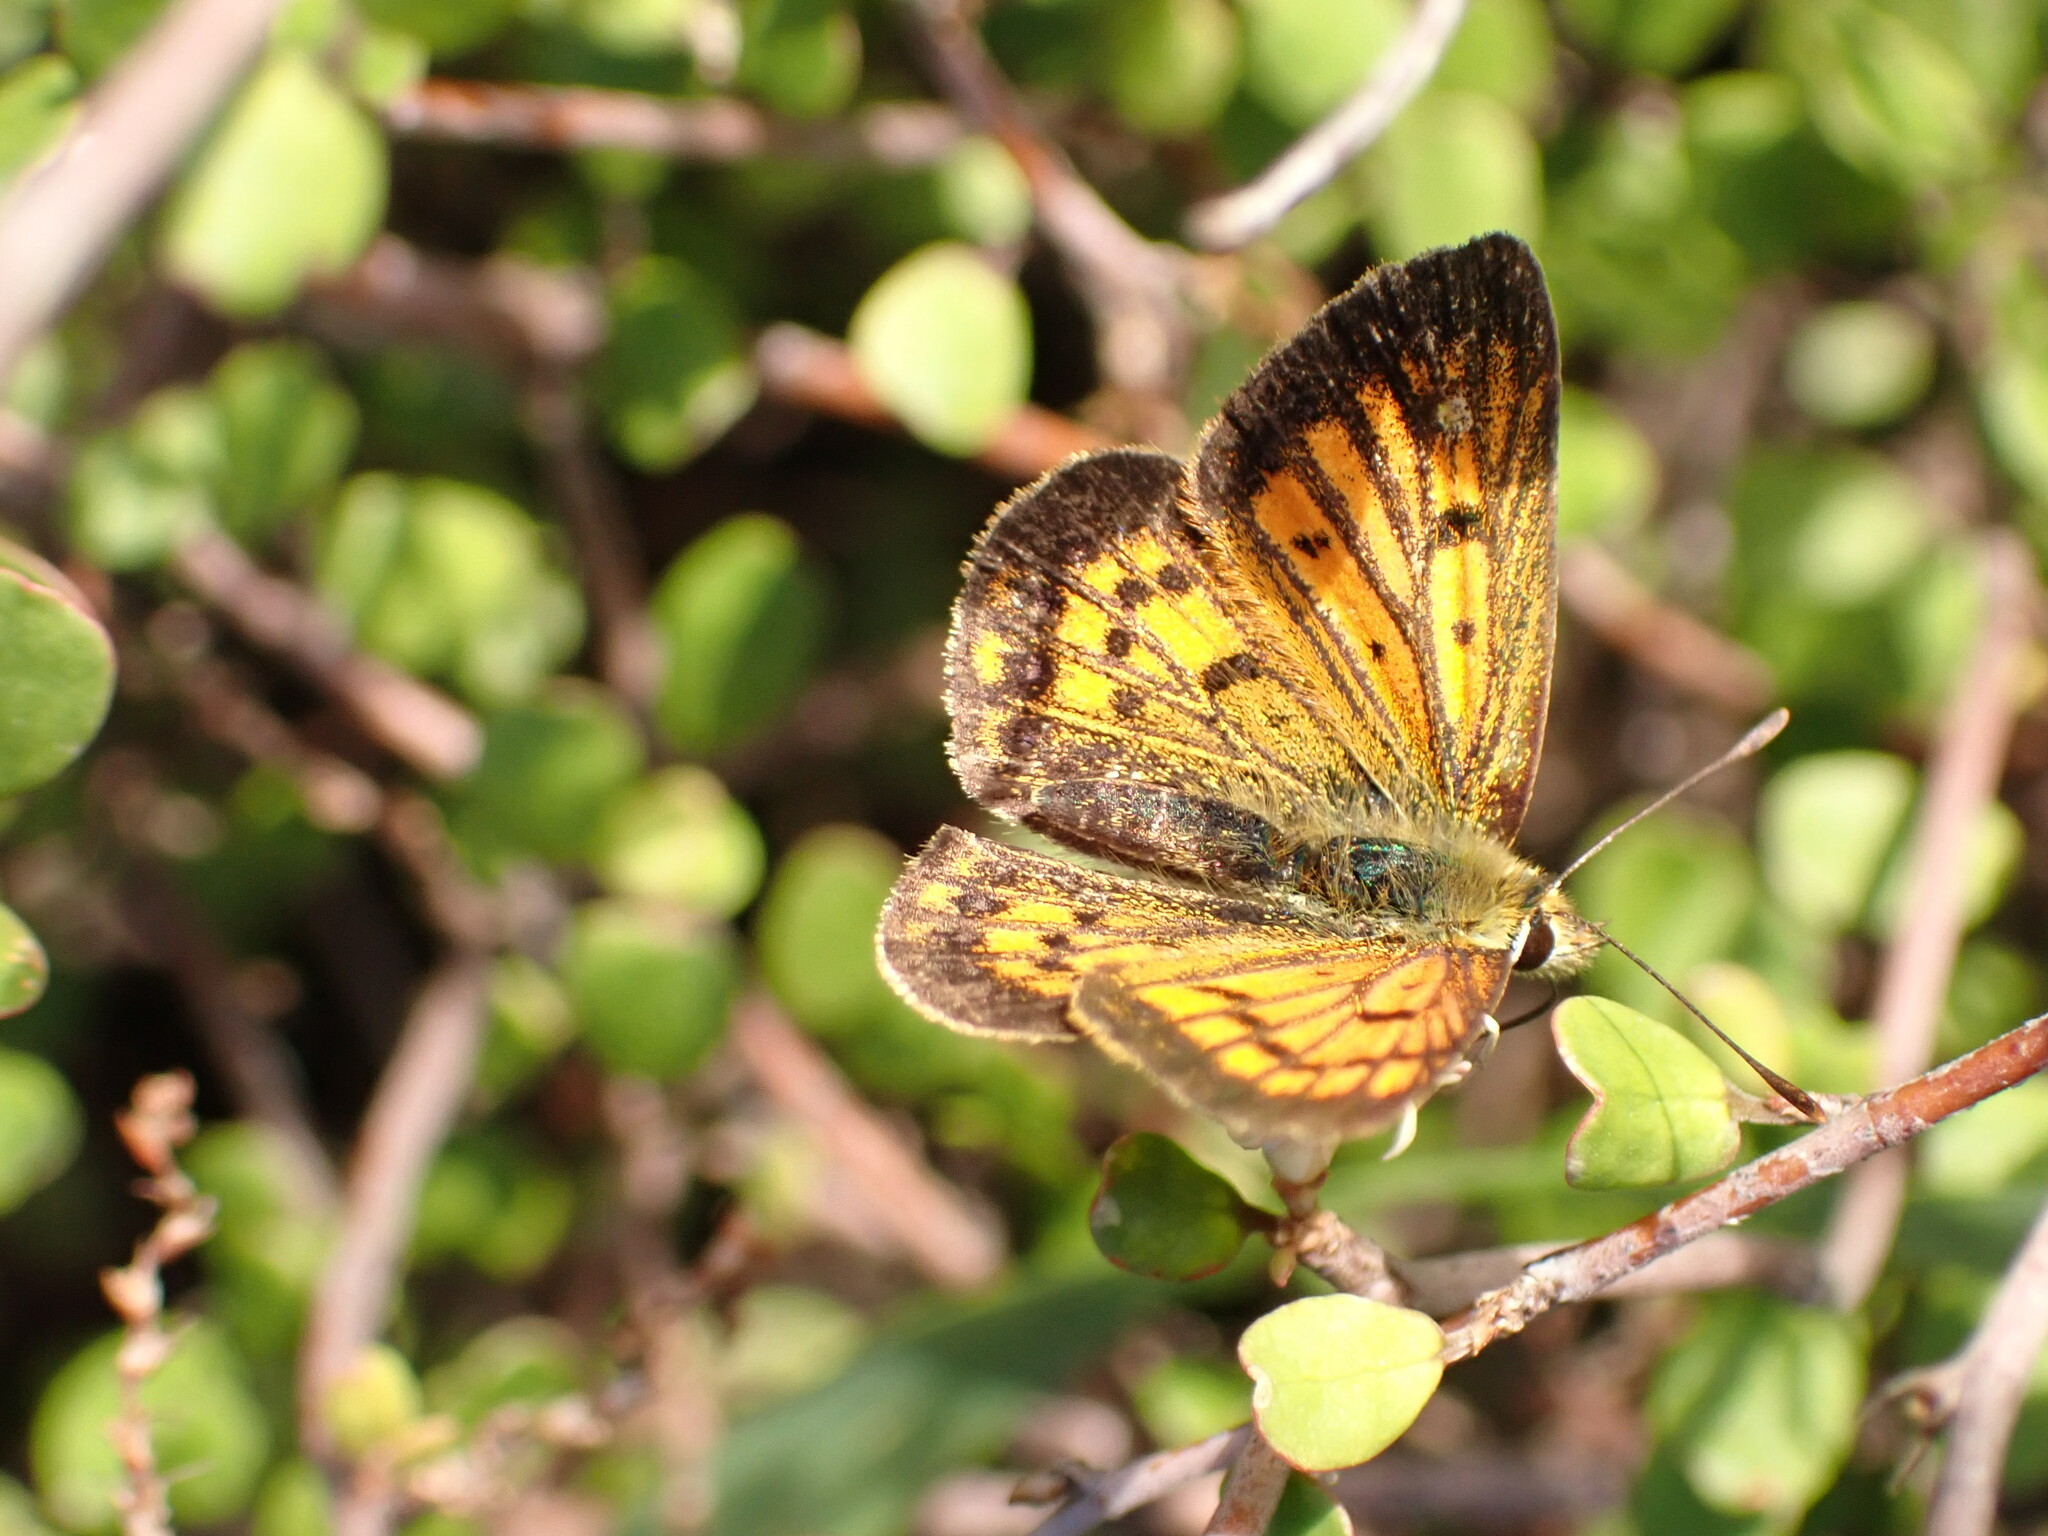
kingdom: Animalia
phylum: Arthropoda
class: Insecta
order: Lepidoptera
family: Lycaenidae
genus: Lycaena
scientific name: Lycaena
